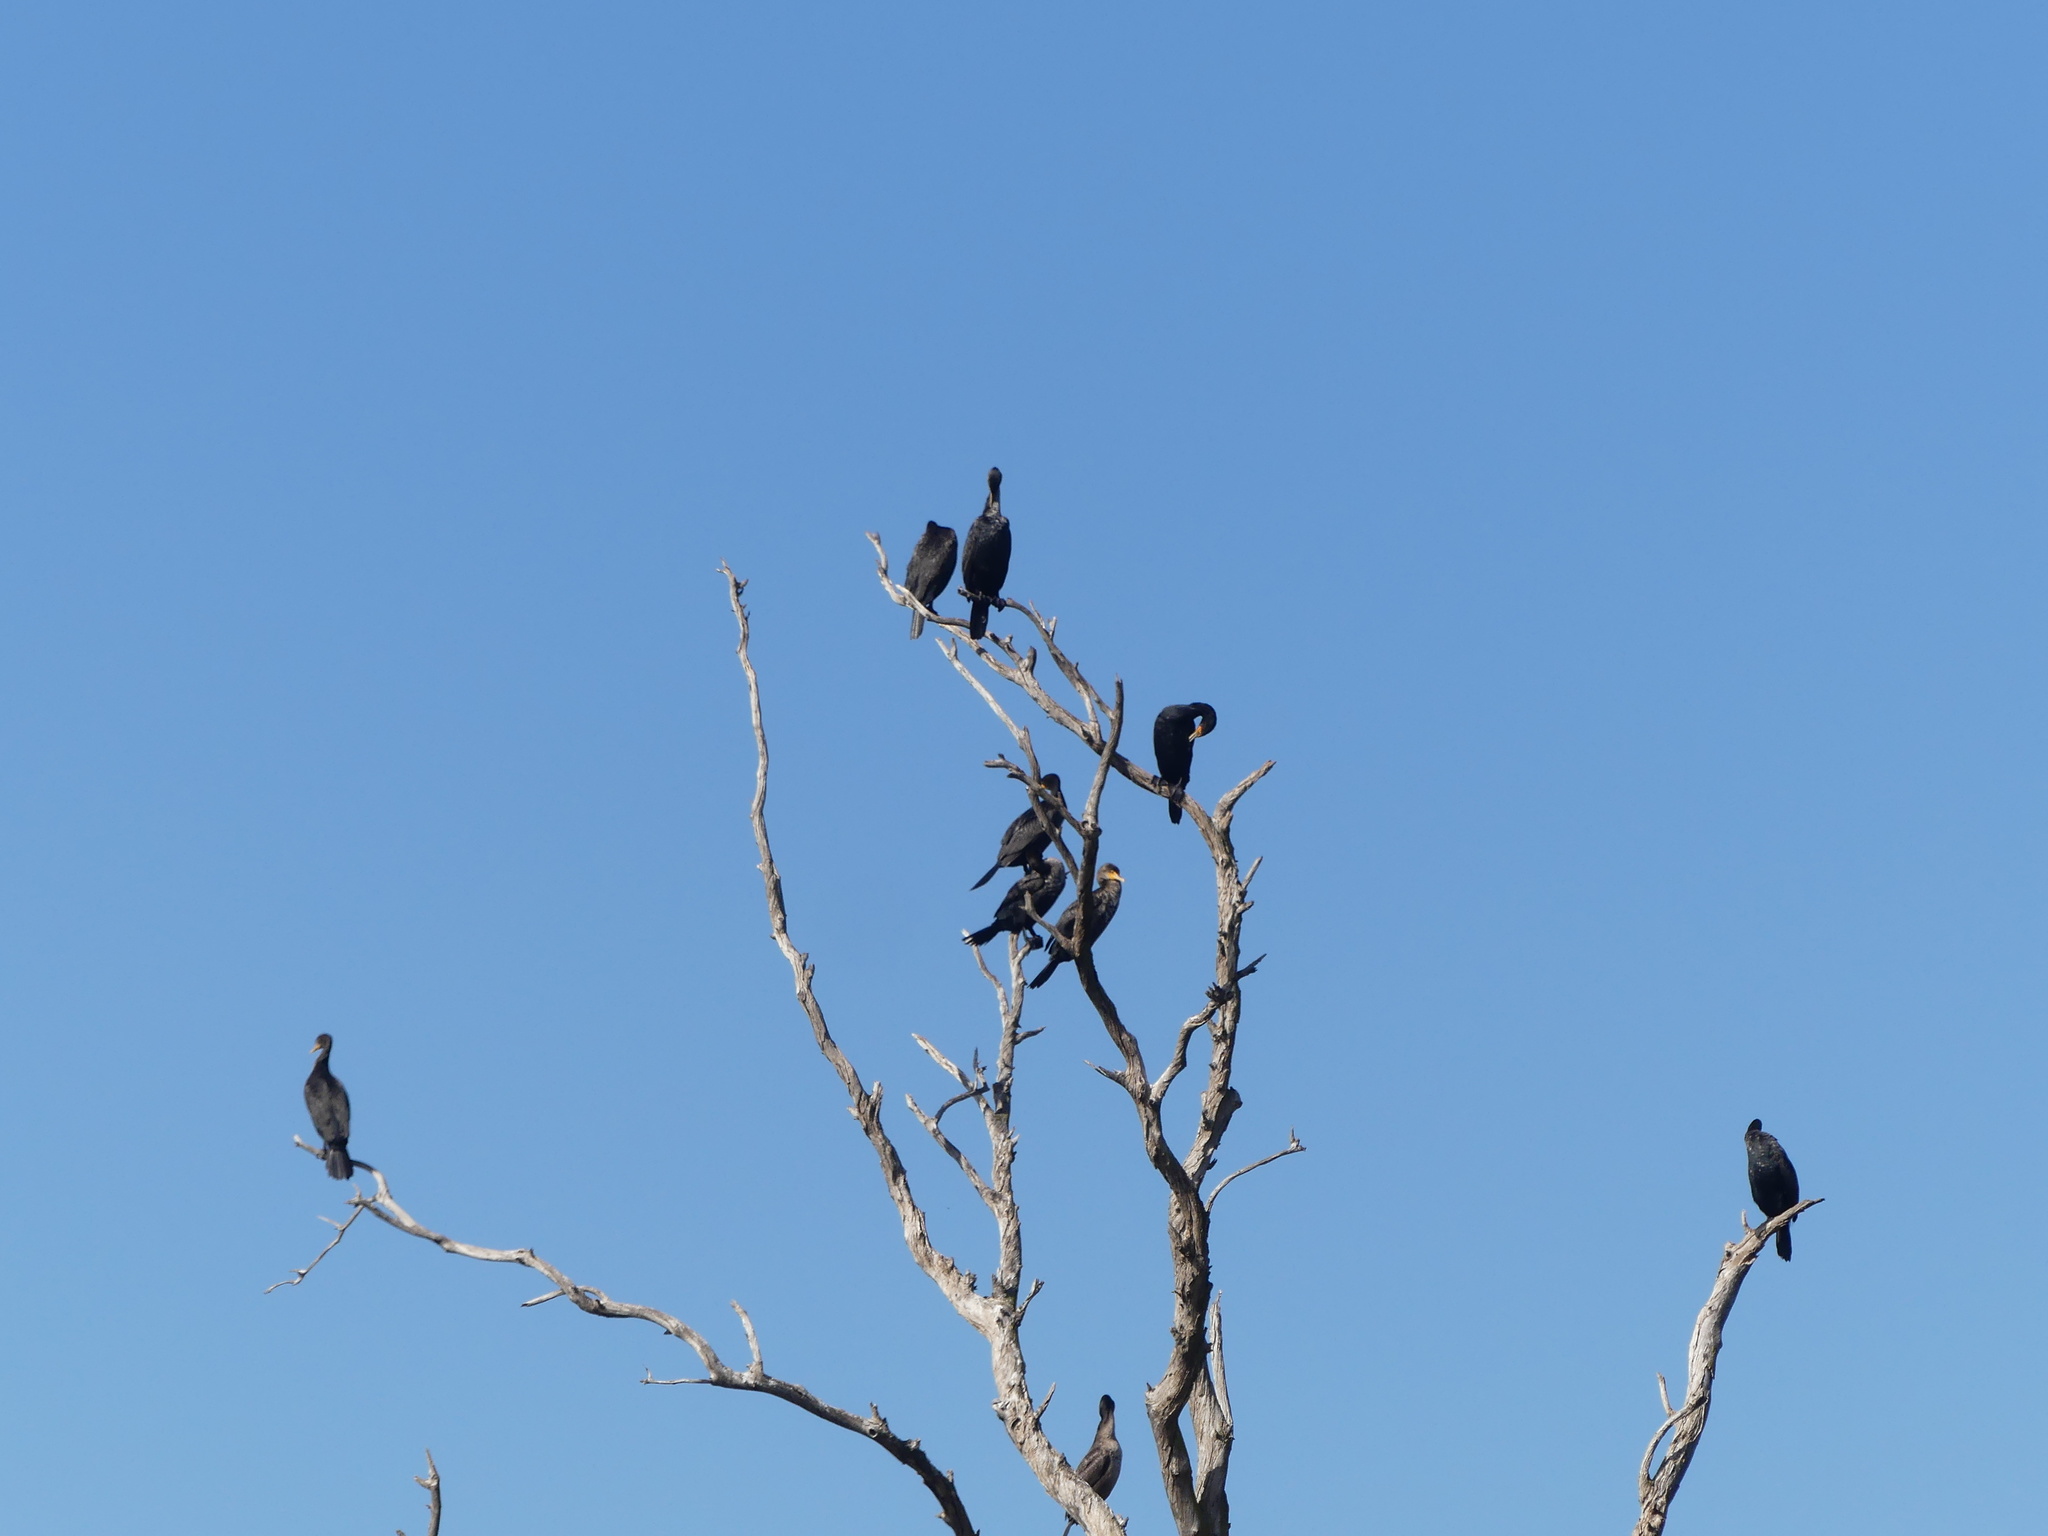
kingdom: Animalia
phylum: Chordata
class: Aves
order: Suliformes
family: Phalacrocoracidae
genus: Phalacrocorax
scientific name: Phalacrocorax auritus
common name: Double-crested cormorant
